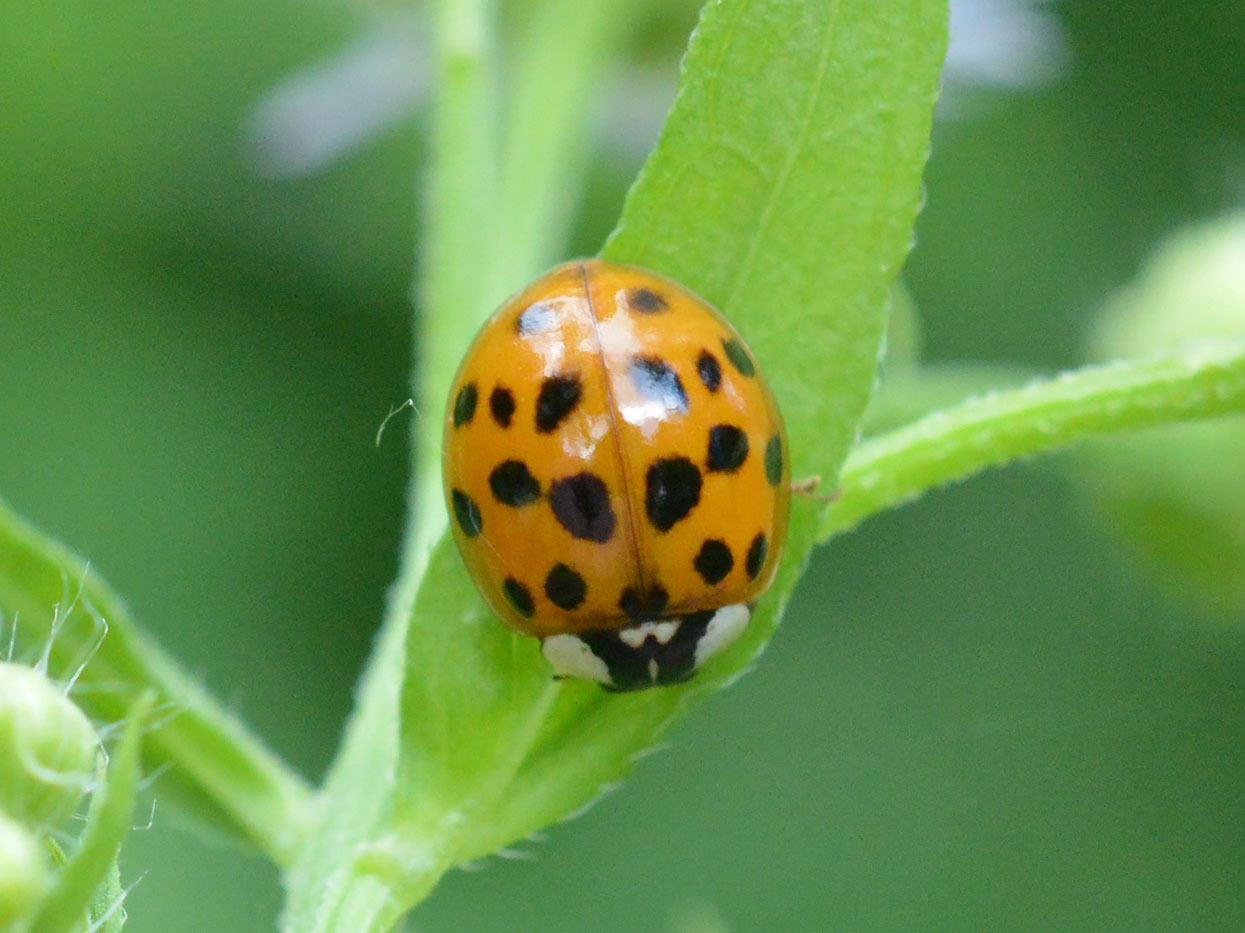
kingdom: Animalia
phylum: Arthropoda
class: Insecta
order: Coleoptera
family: Coccinellidae
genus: Harmonia
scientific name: Harmonia axyridis
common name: Harlequin ladybird
